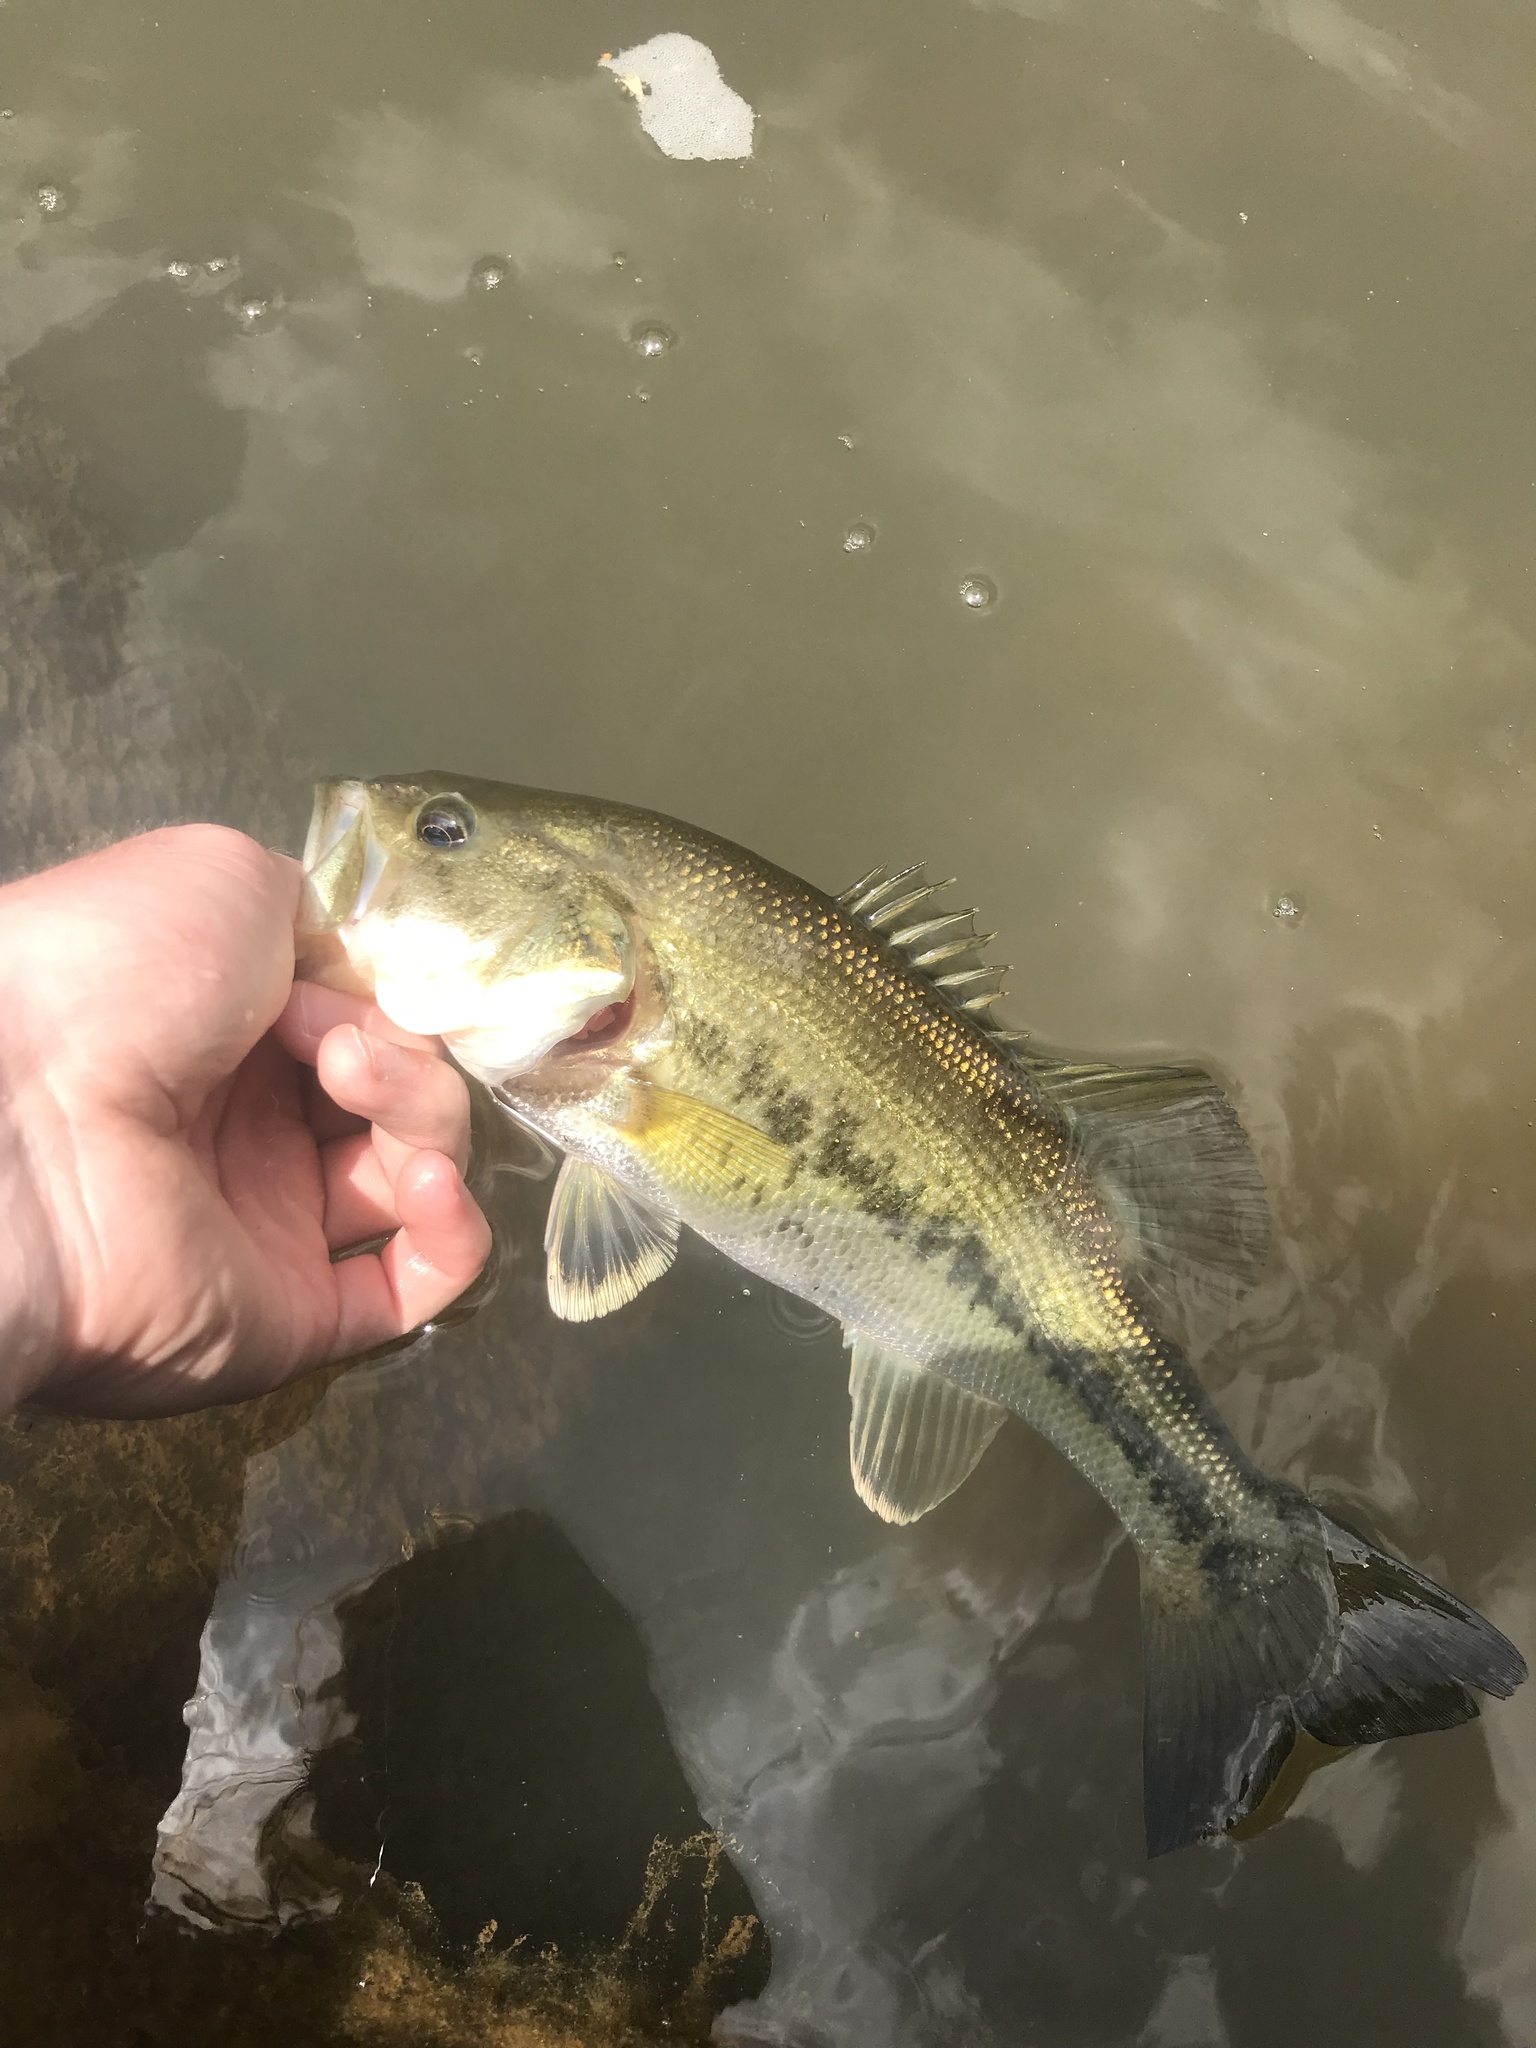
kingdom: Animalia
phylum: Chordata
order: Perciformes
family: Centrarchidae
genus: Micropterus
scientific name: Micropterus salmoides
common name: Largemouth bass
